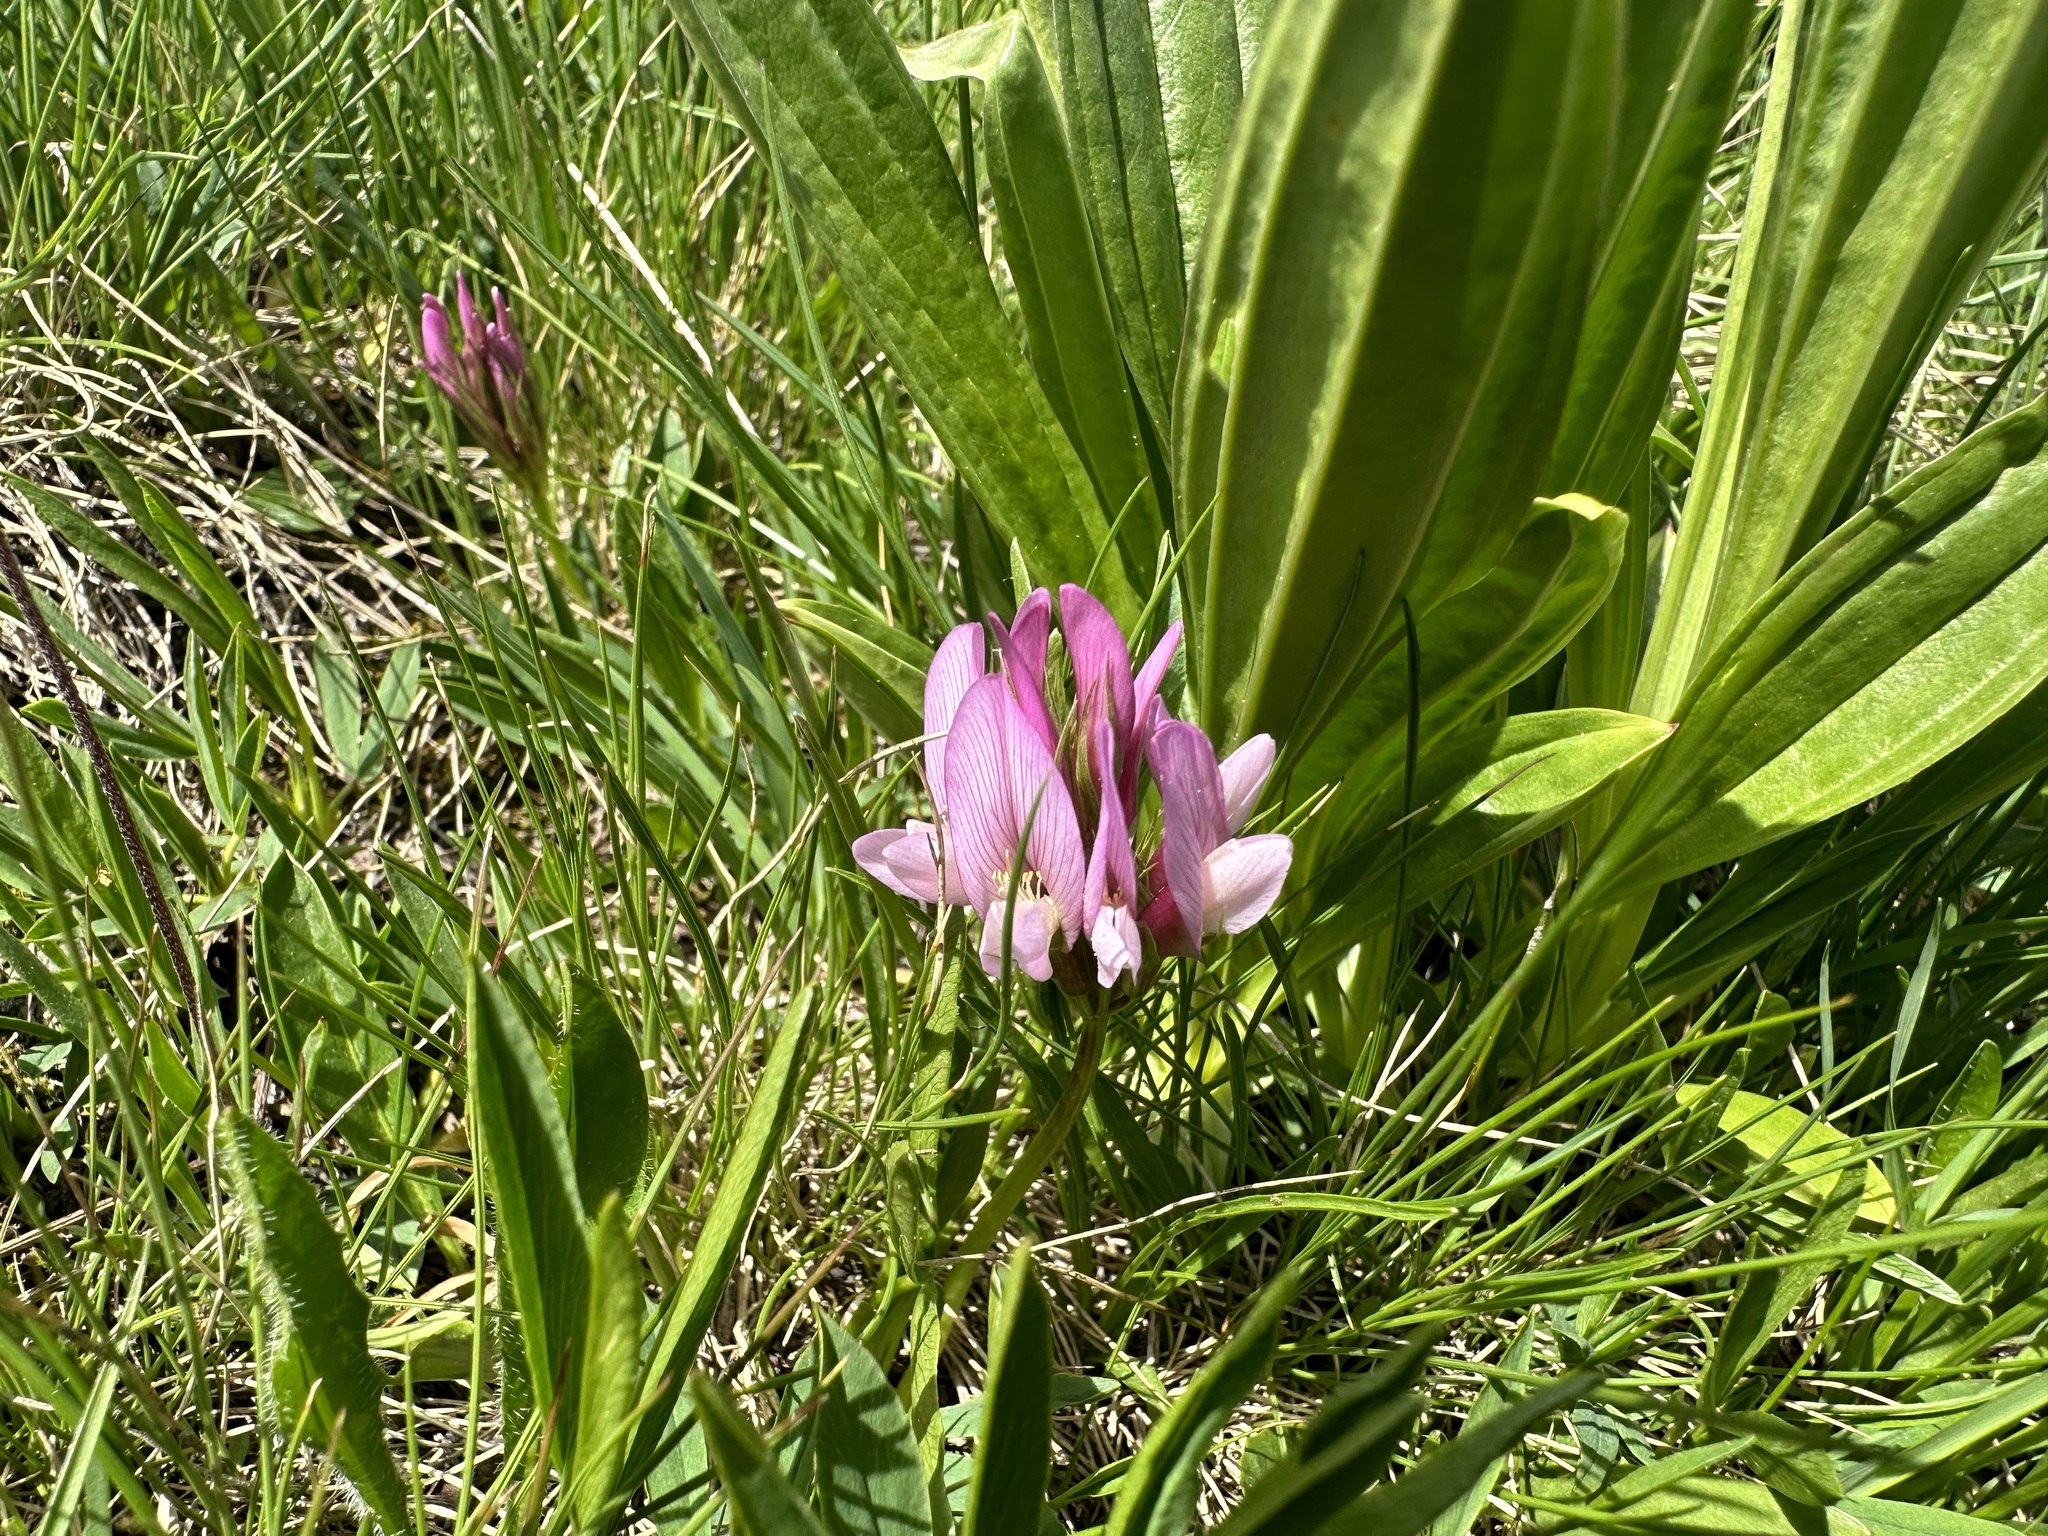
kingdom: Plantae
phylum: Tracheophyta
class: Magnoliopsida
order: Fabales
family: Fabaceae
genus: Trifolium
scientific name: Trifolium alpinum
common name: Alpine clover
